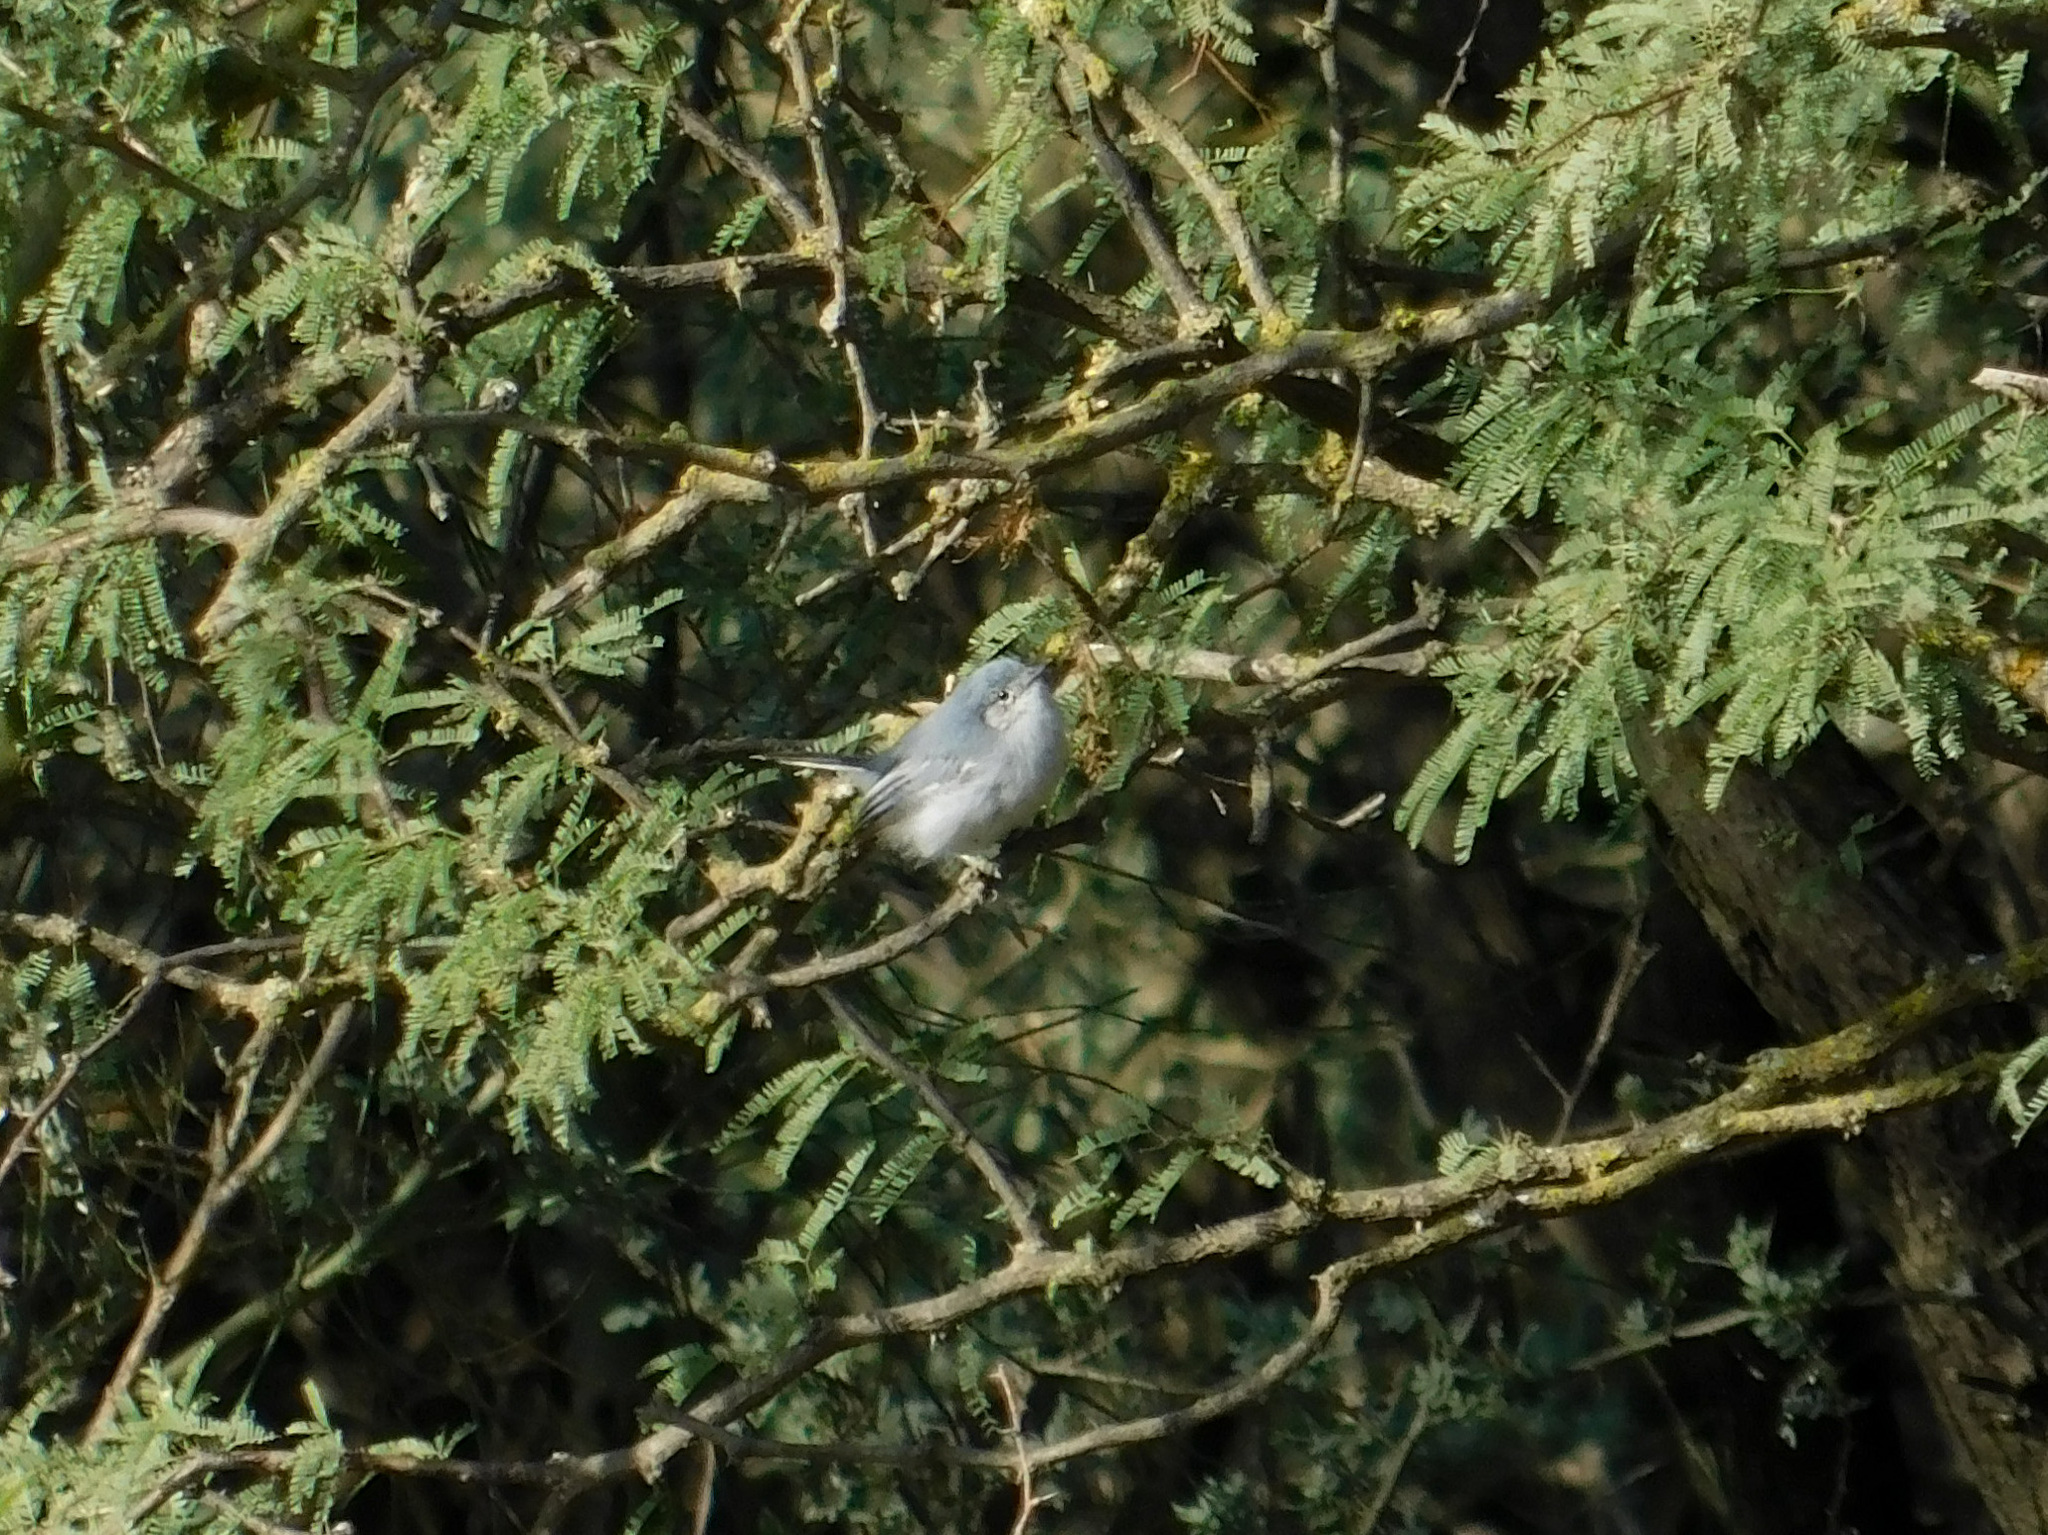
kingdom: Animalia
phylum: Chordata
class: Aves
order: Passeriformes
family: Polioptilidae
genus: Polioptila
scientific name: Polioptila dumicola
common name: Masked gnatcatcher
